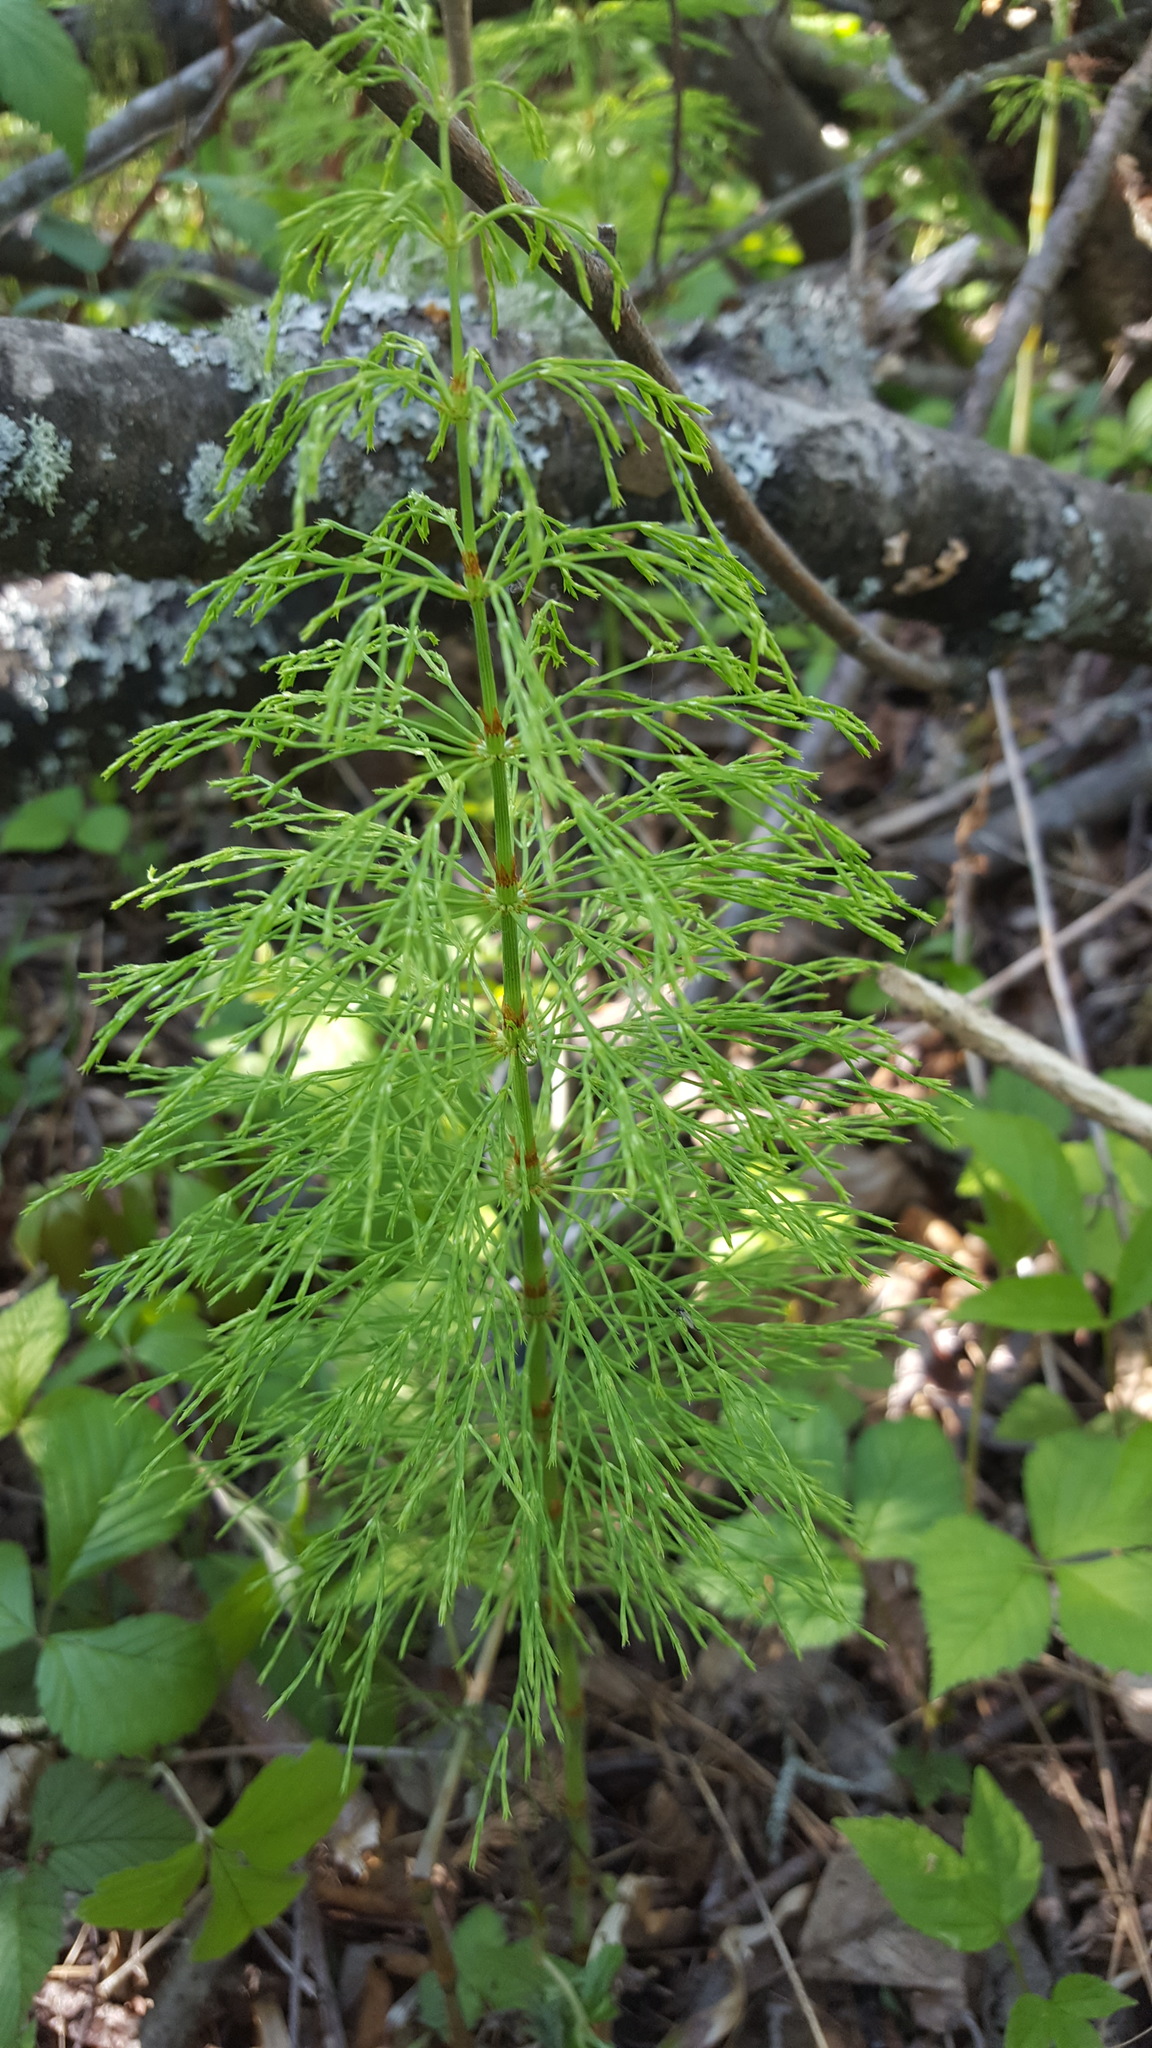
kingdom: Plantae
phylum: Tracheophyta
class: Polypodiopsida
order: Equisetales
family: Equisetaceae
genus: Equisetum
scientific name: Equisetum sylvaticum
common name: Wood horsetail
